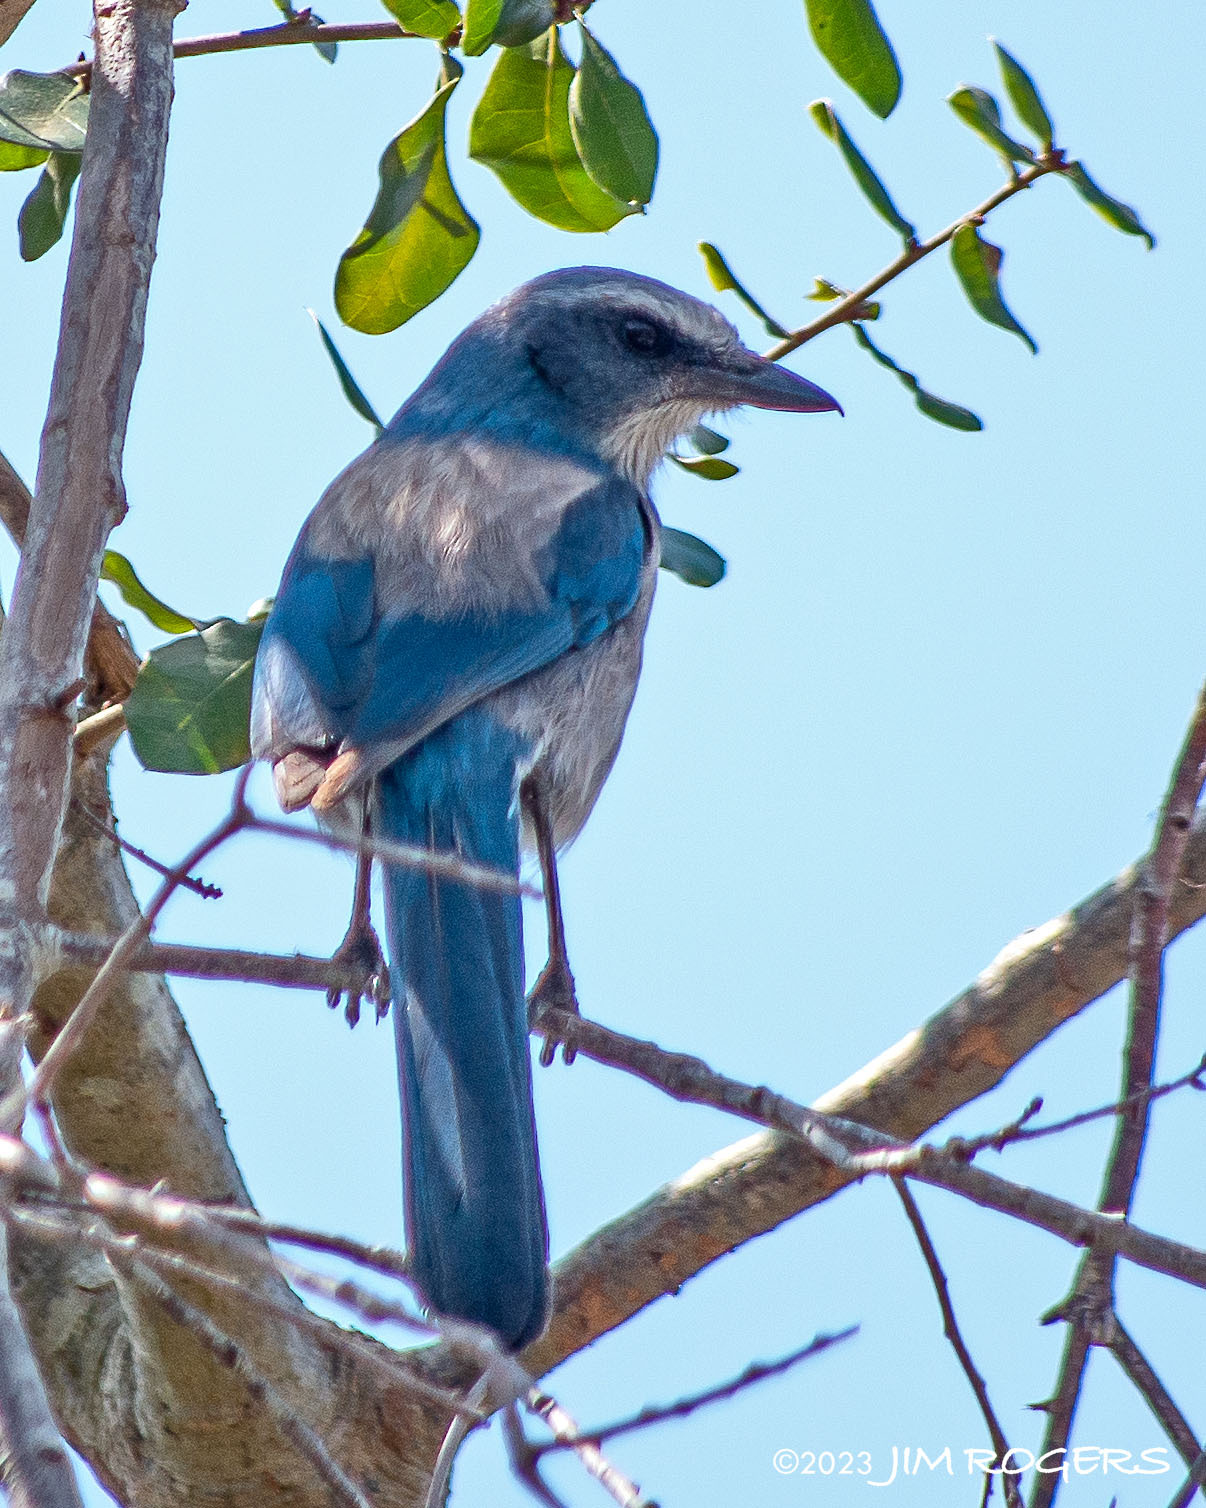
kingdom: Animalia
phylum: Chordata
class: Aves
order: Passeriformes
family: Corvidae
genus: Aphelocoma
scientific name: Aphelocoma coerulescens
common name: Florida scrub jay
